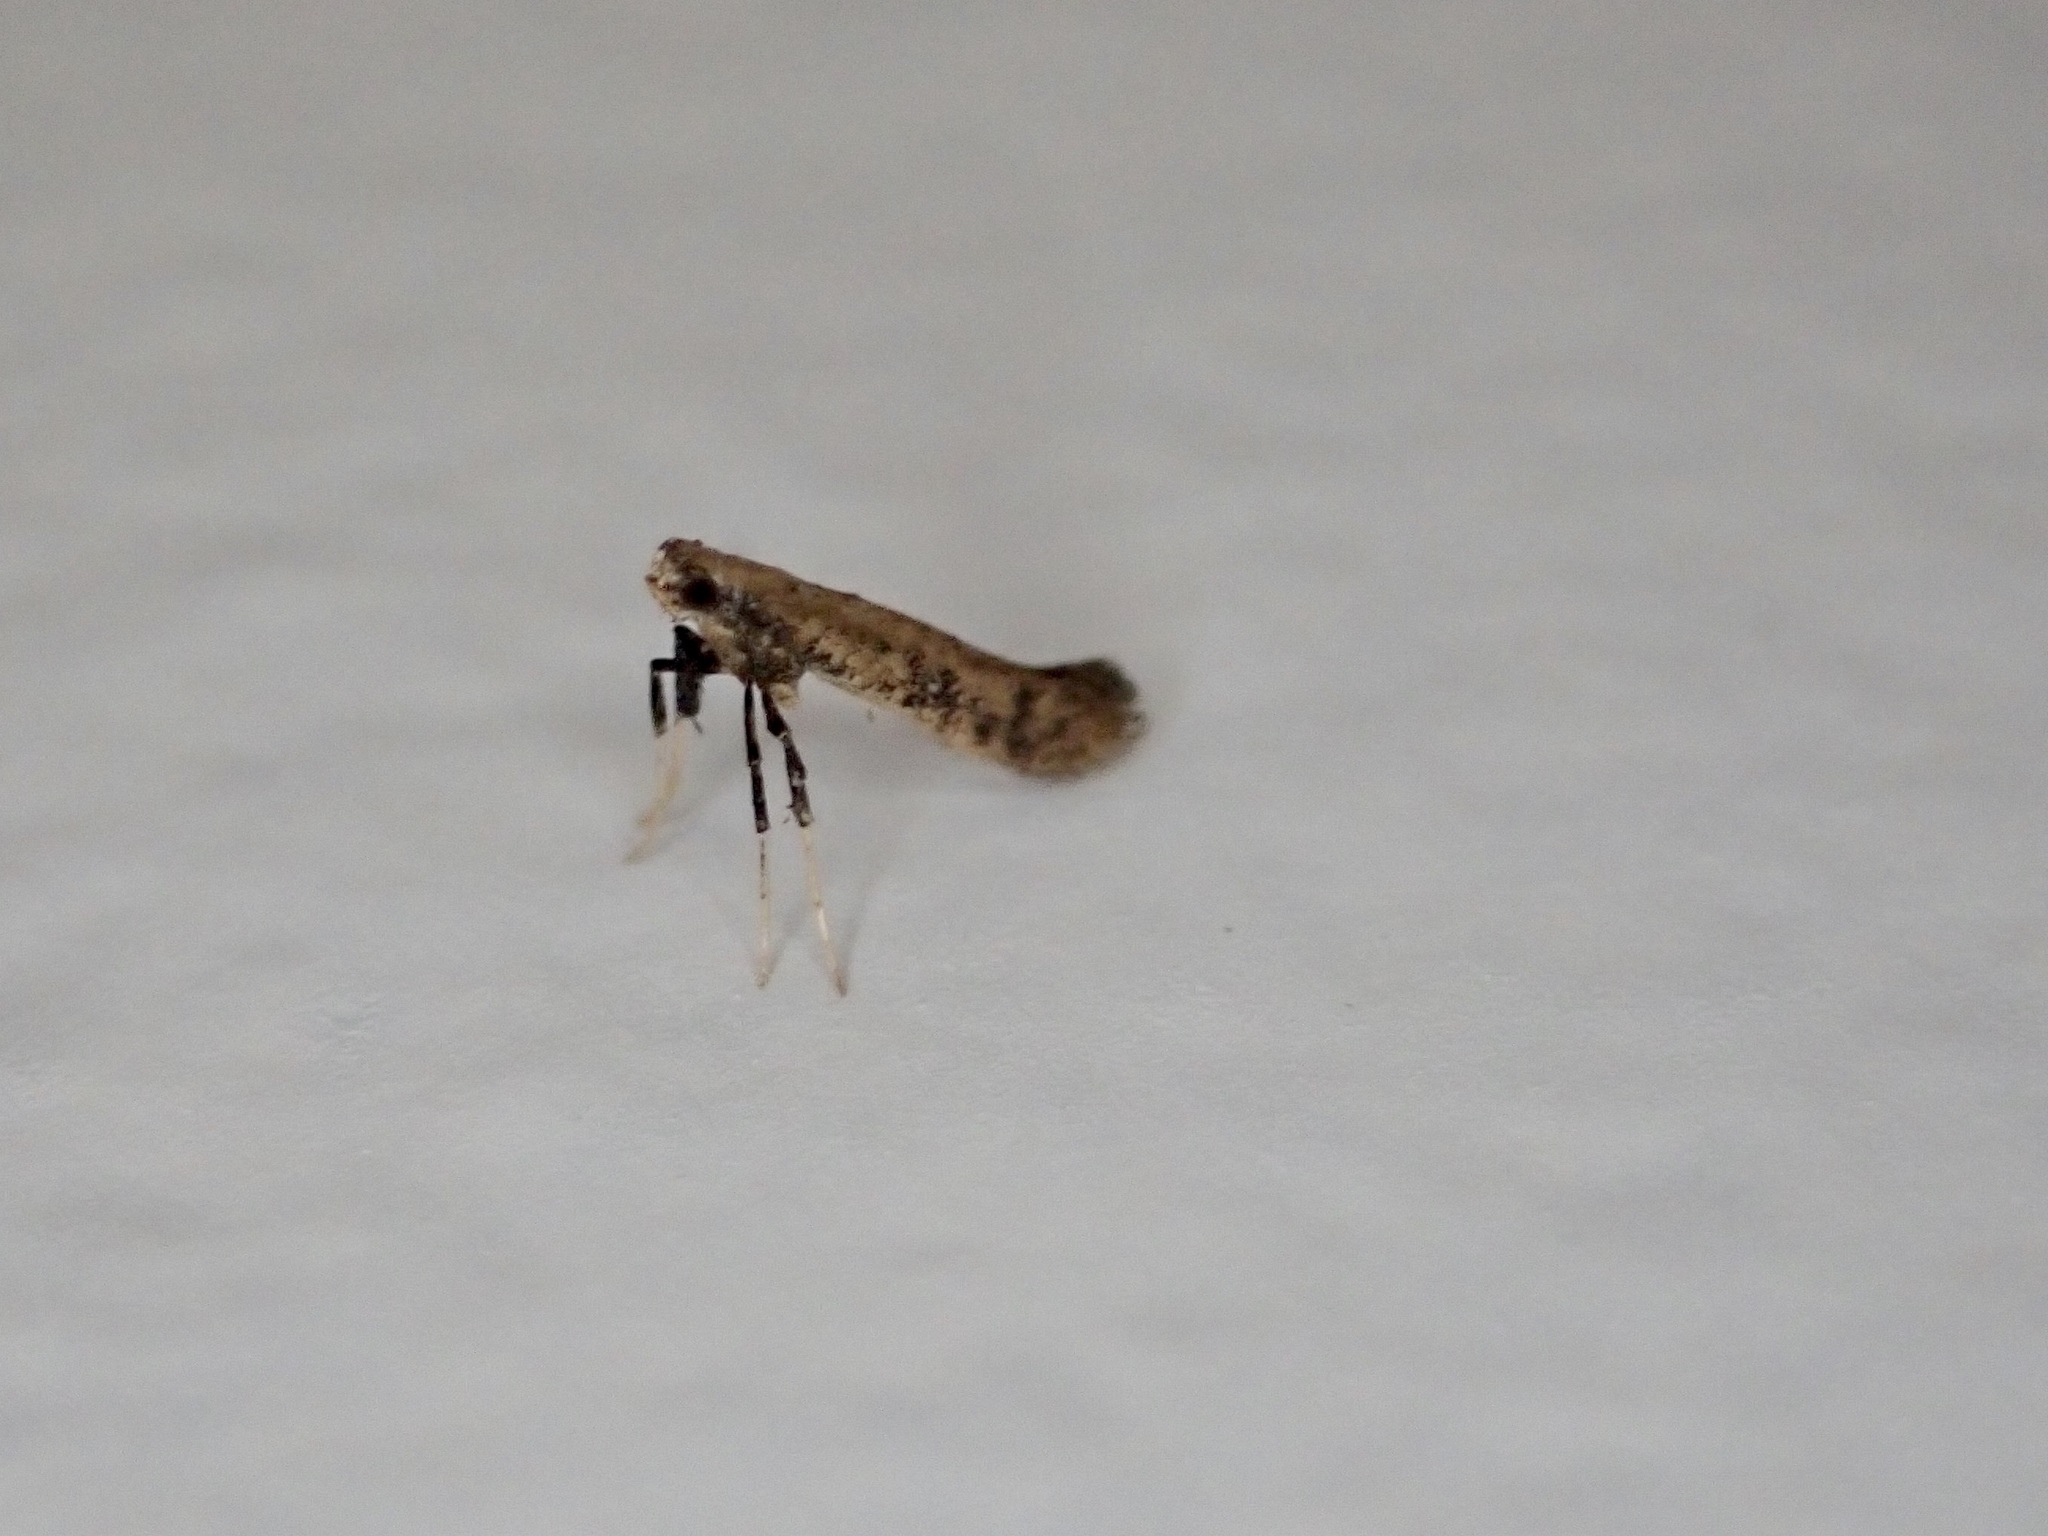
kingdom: Animalia
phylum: Arthropoda
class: Insecta
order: Lepidoptera
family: Gracillariidae
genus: Sabulopteryx
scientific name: Sabulopteryx botanica
